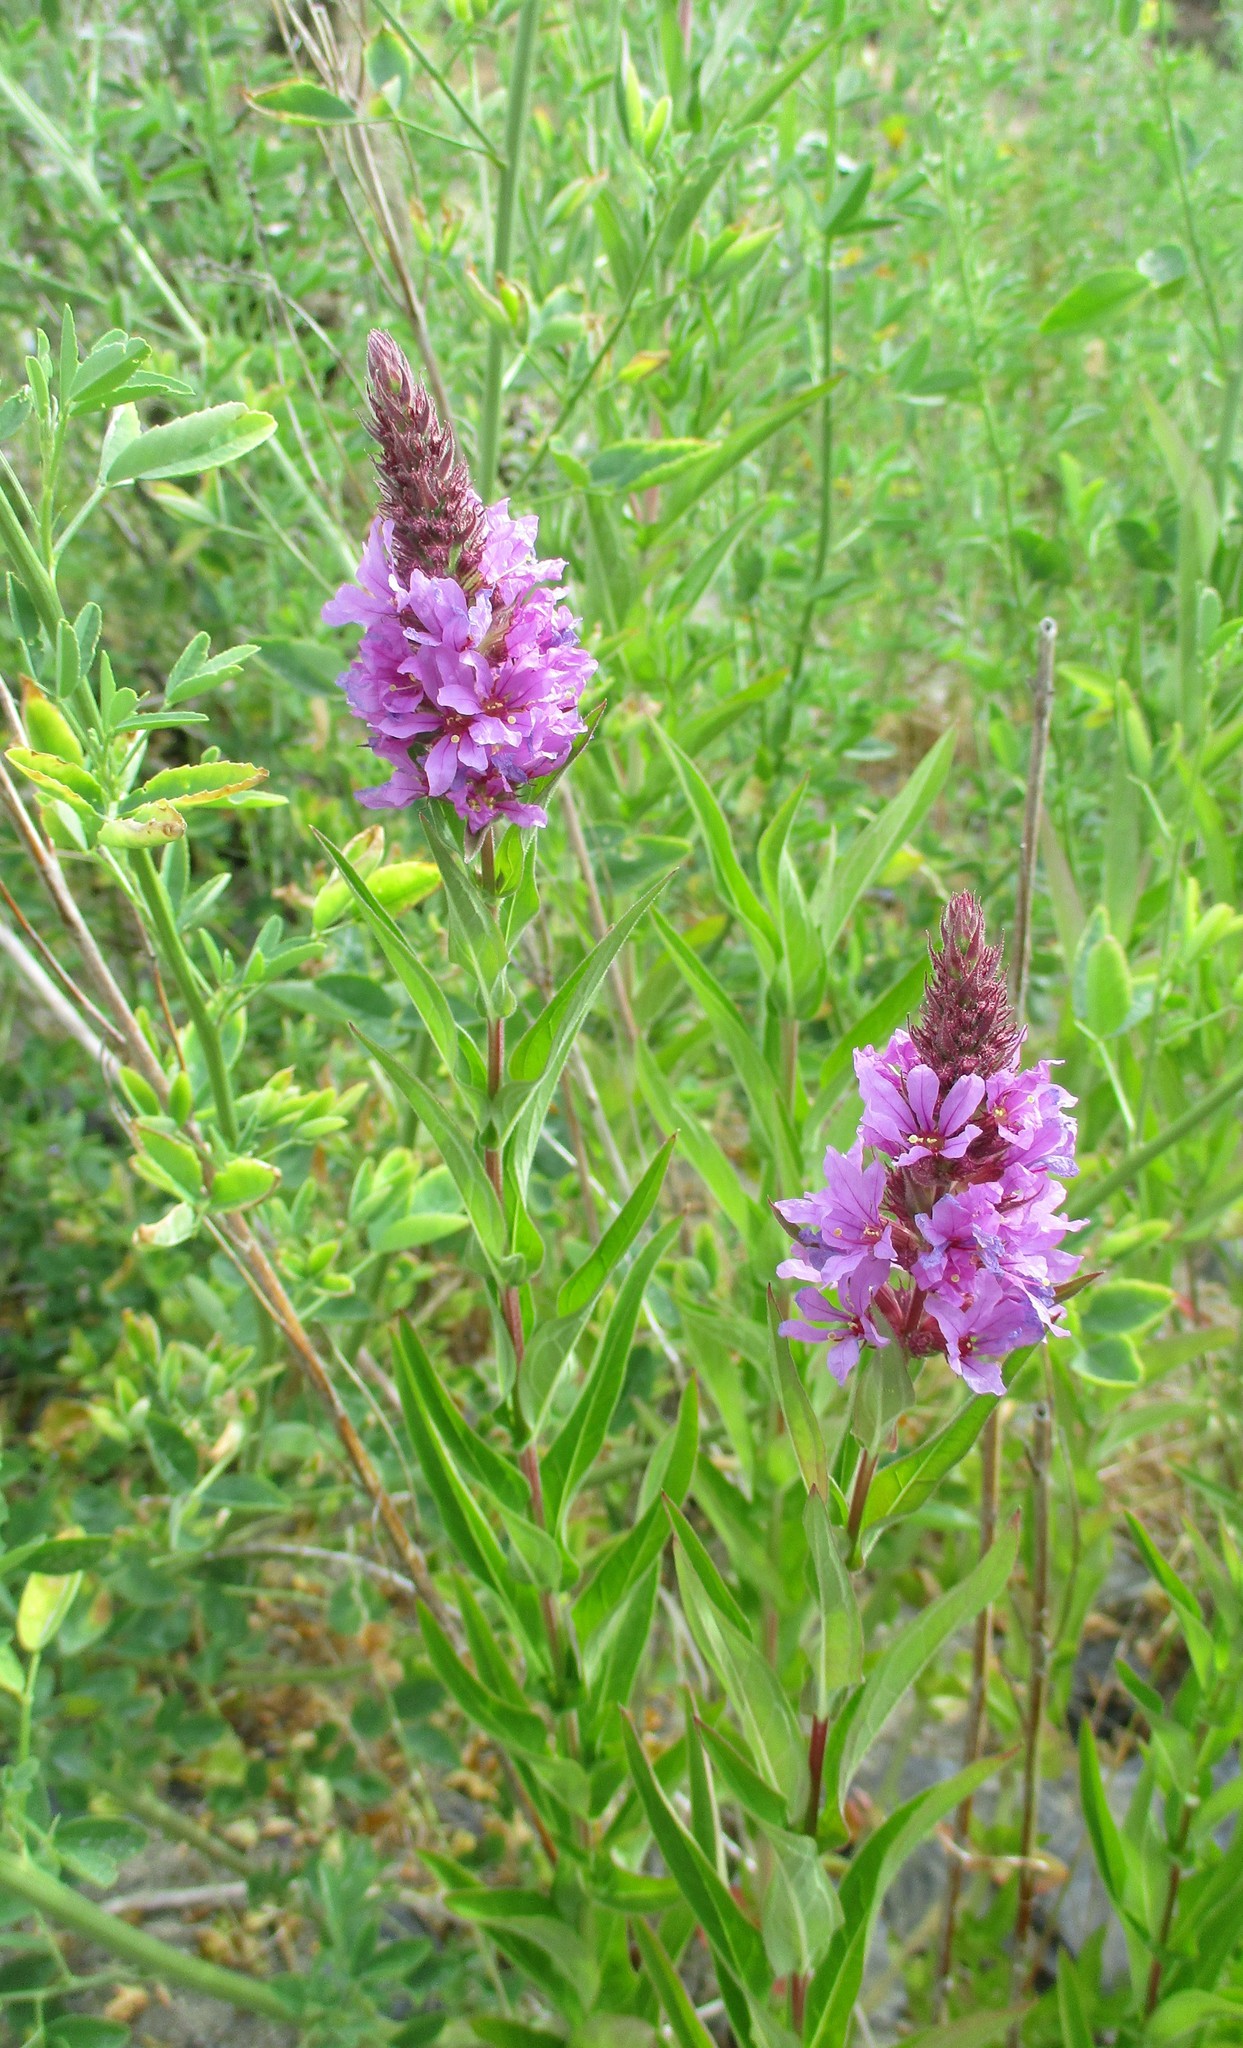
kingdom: Plantae
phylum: Tracheophyta
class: Magnoliopsida
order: Myrtales
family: Lythraceae
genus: Lythrum
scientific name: Lythrum salicaria
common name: Purple loosestrife
